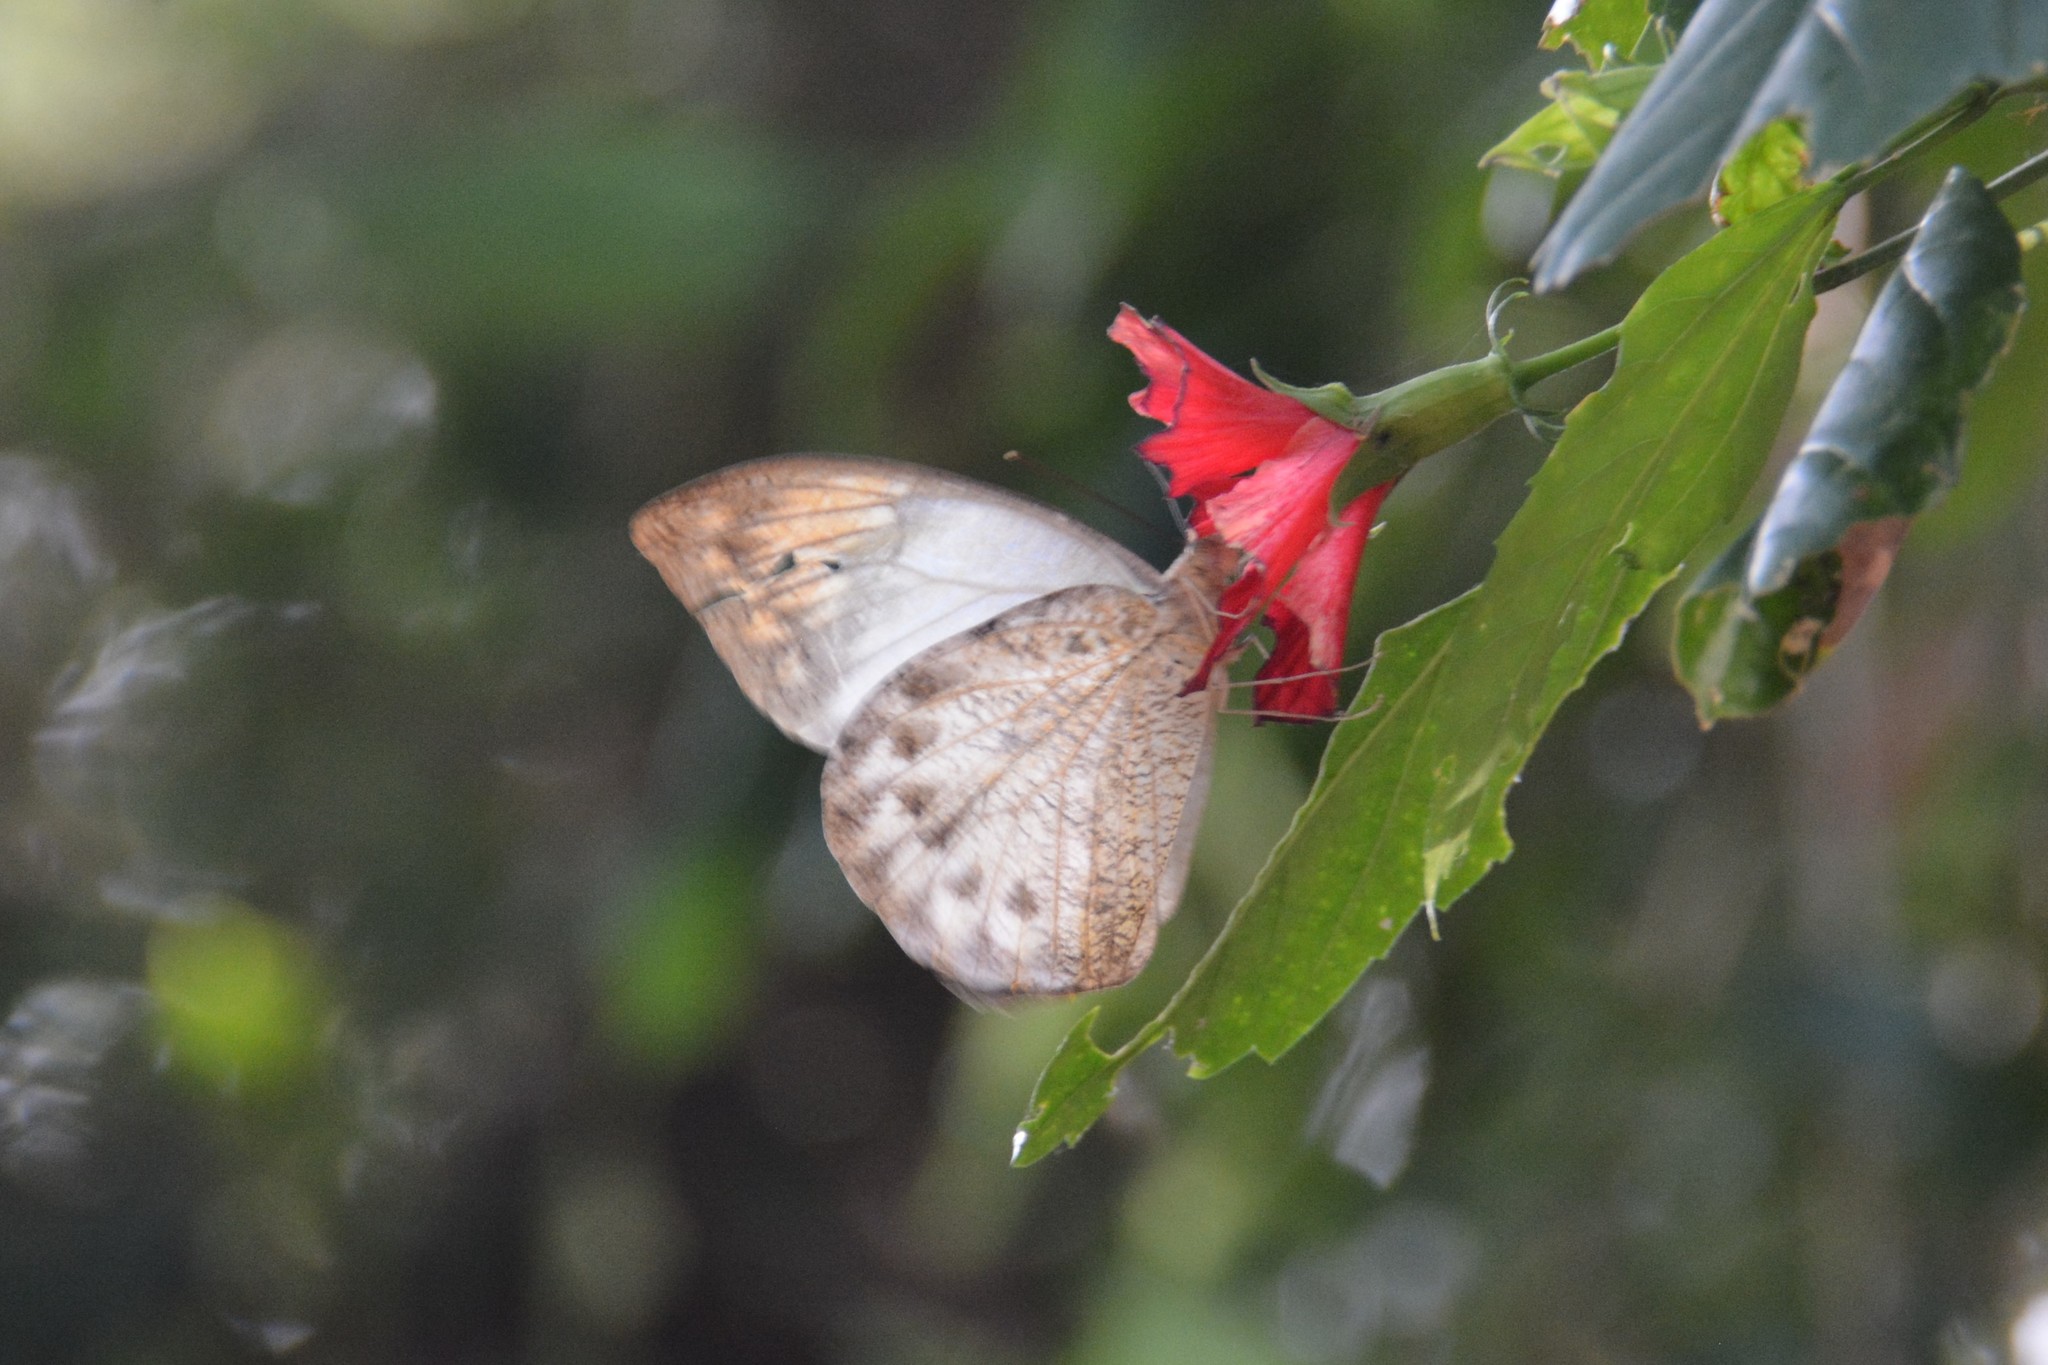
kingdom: Animalia
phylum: Arthropoda
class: Insecta
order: Lepidoptera
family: Pieridae
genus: Hebomoia
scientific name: Hebomoia glaucippe
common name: Great orange tip
